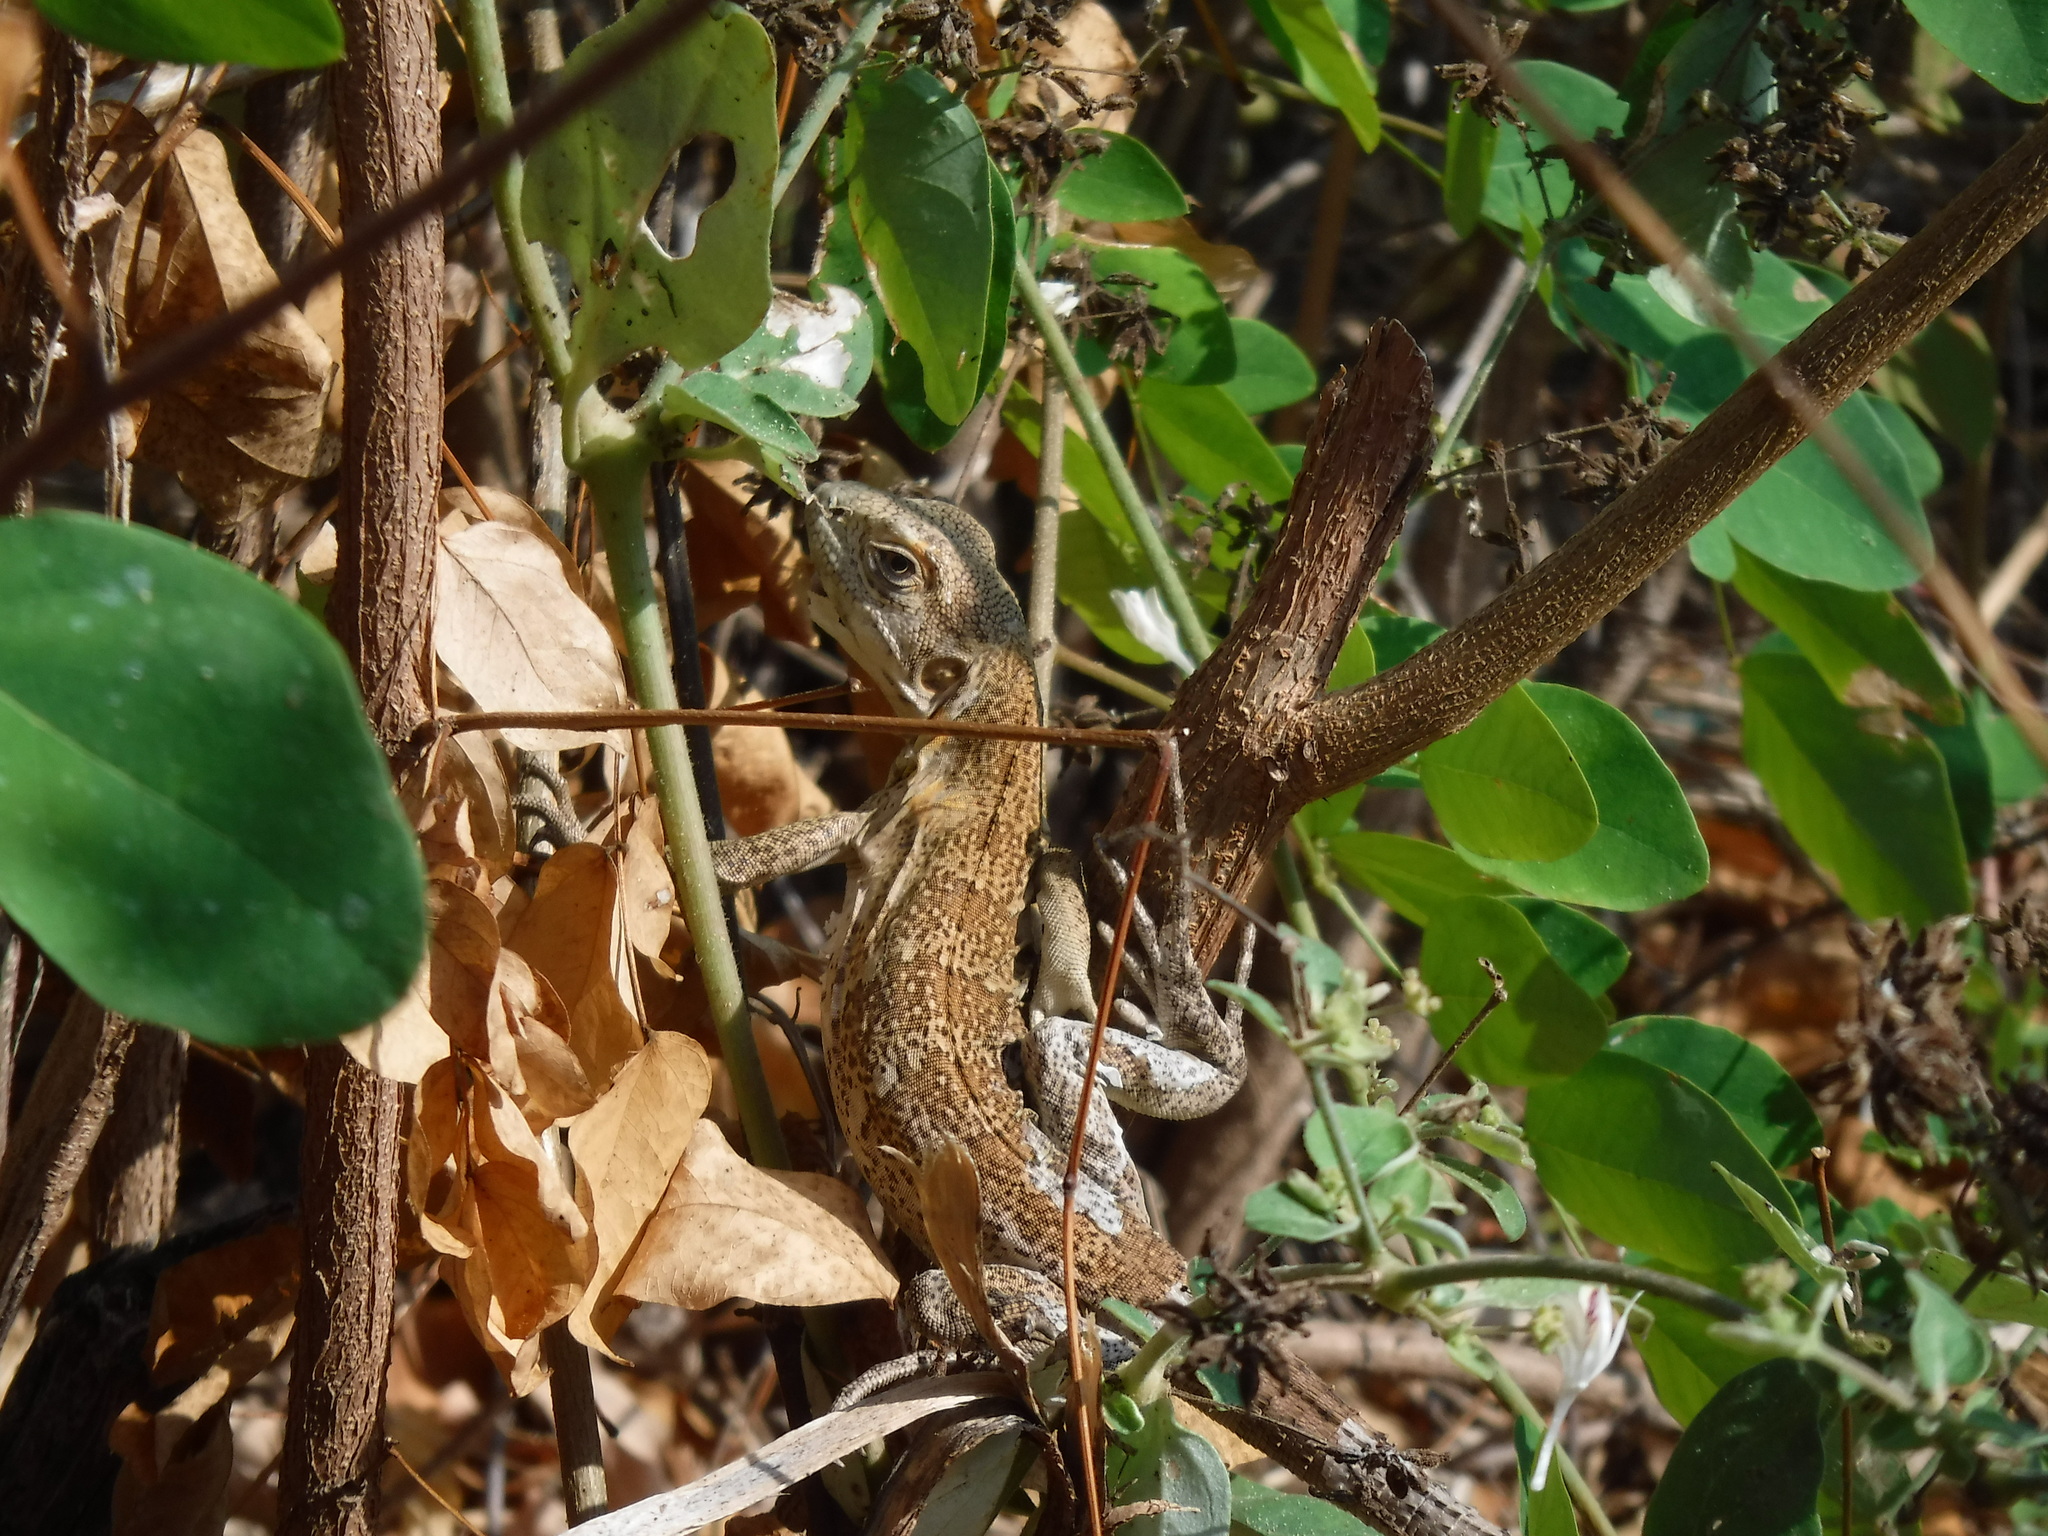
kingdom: Animalia
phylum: Chordata
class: Squamata
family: Iguanidae
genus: Ctenosaura
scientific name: Ctenosaura pectinata
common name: Guerreran spiny-tailed iguana
